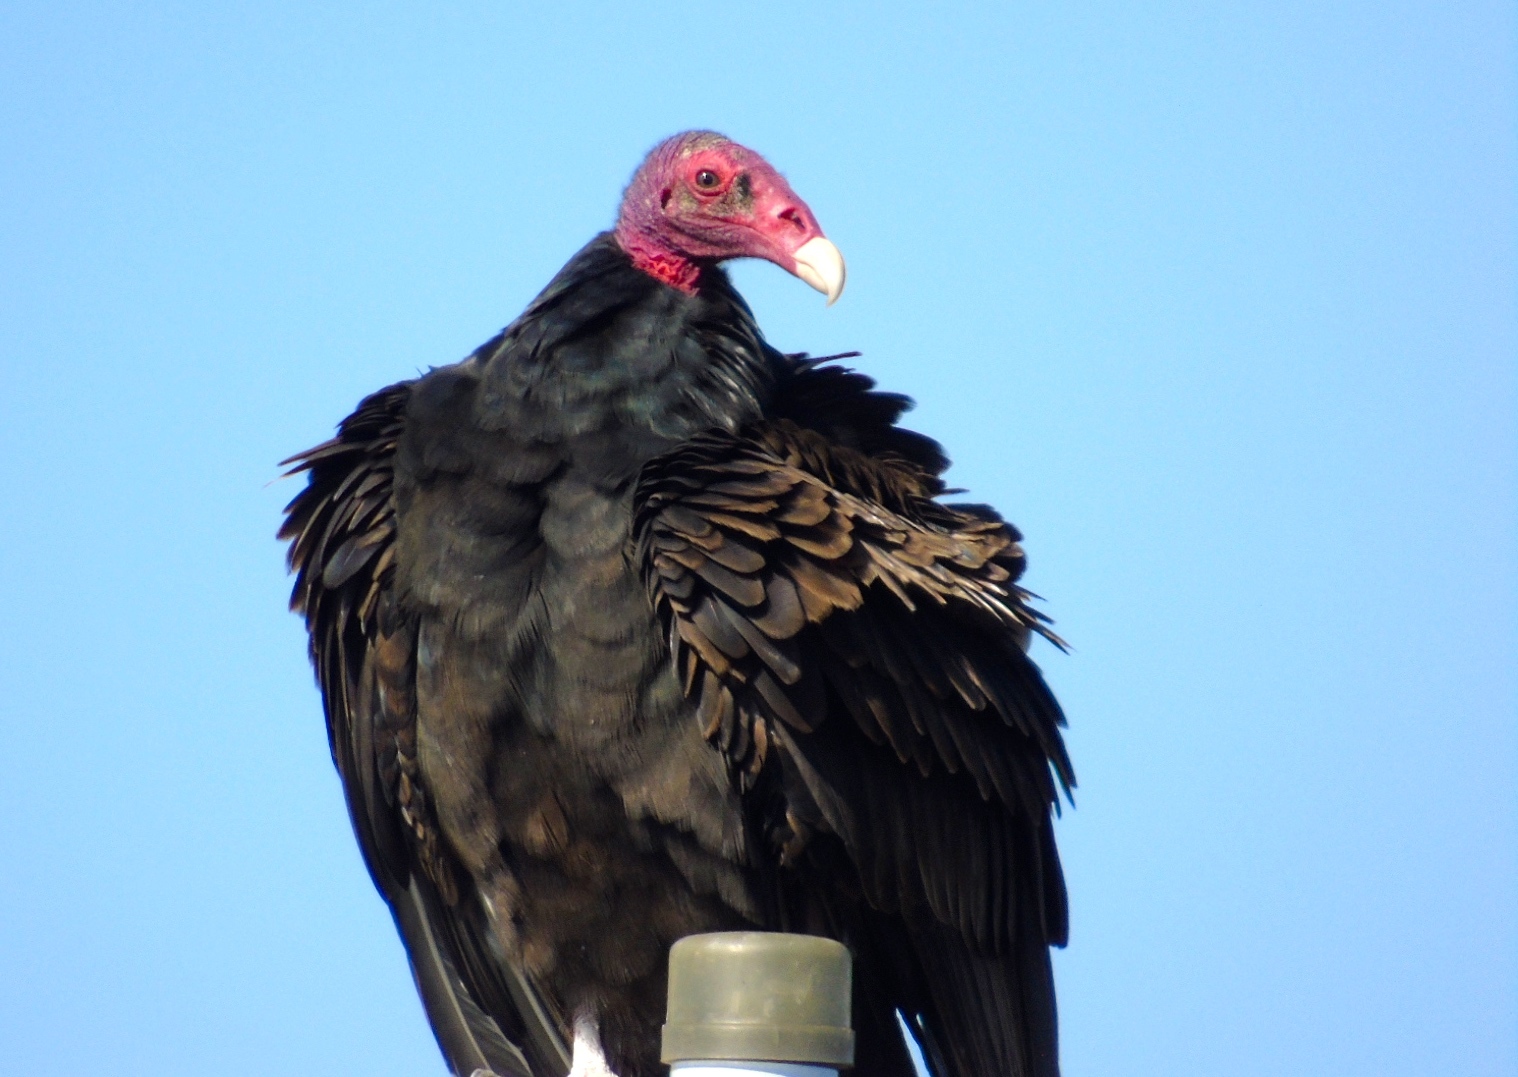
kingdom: Animalia
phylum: Chordata
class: Aves
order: Accipitriformes
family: Cathartidae
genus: Cathartes
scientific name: Cathartes aura
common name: Turkey vulture
